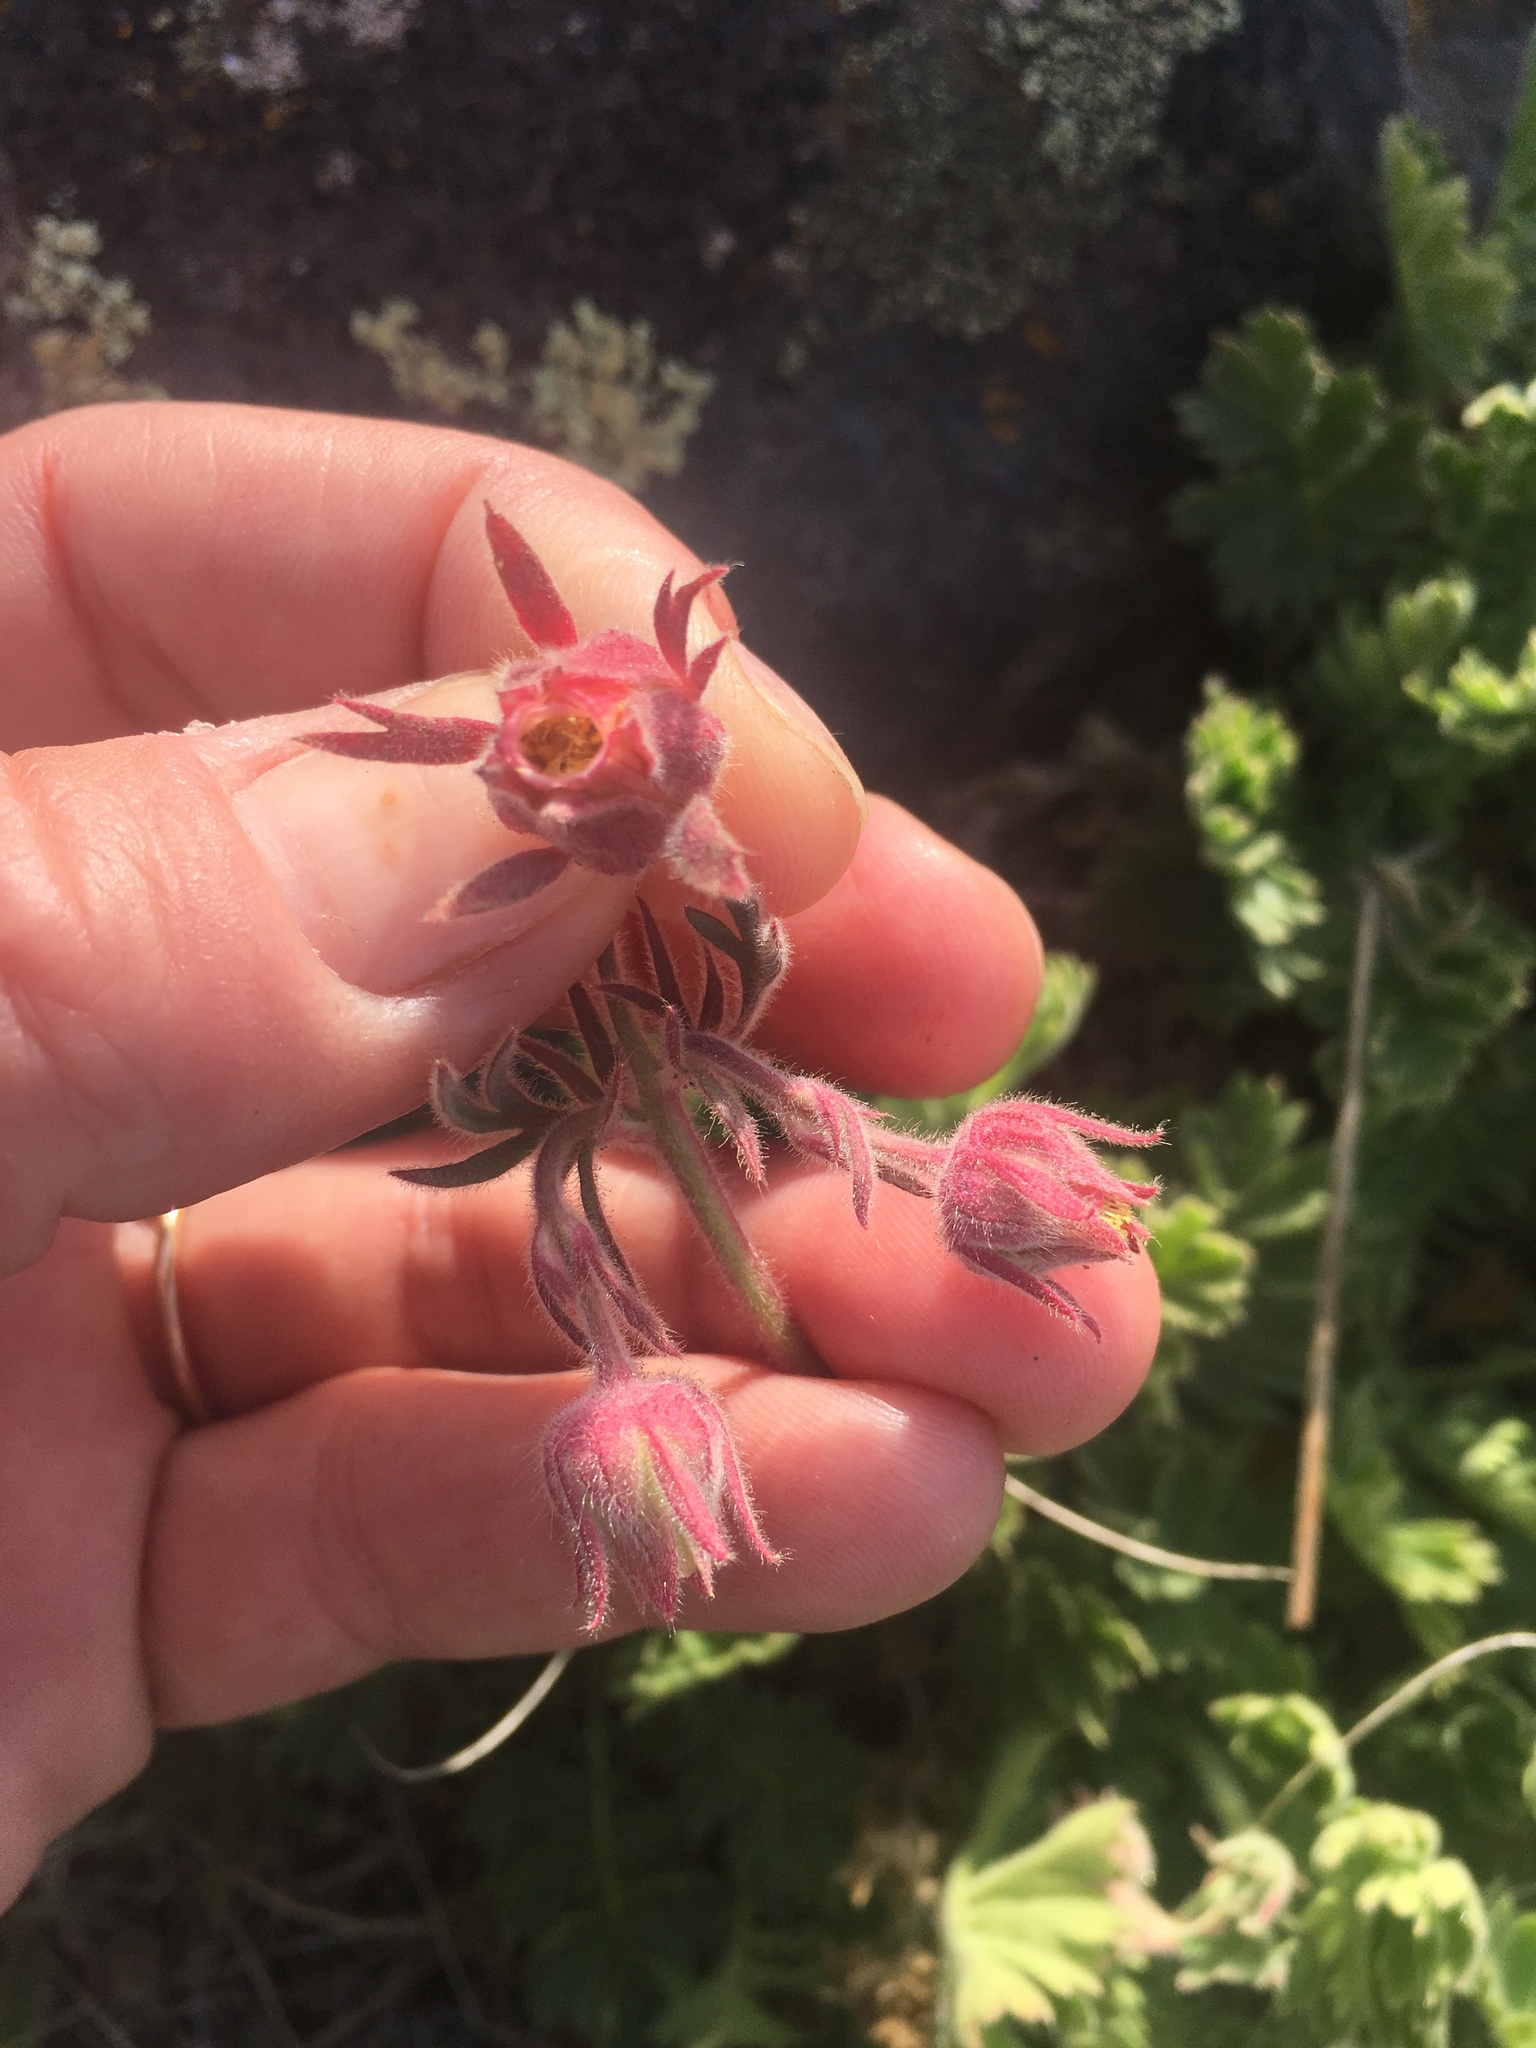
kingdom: Plantae
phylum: Tracheophyta
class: Magnoliopsida
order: Rosales
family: Rosaceae
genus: Geum
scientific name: Geum triflorum
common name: Old man's whiskers
